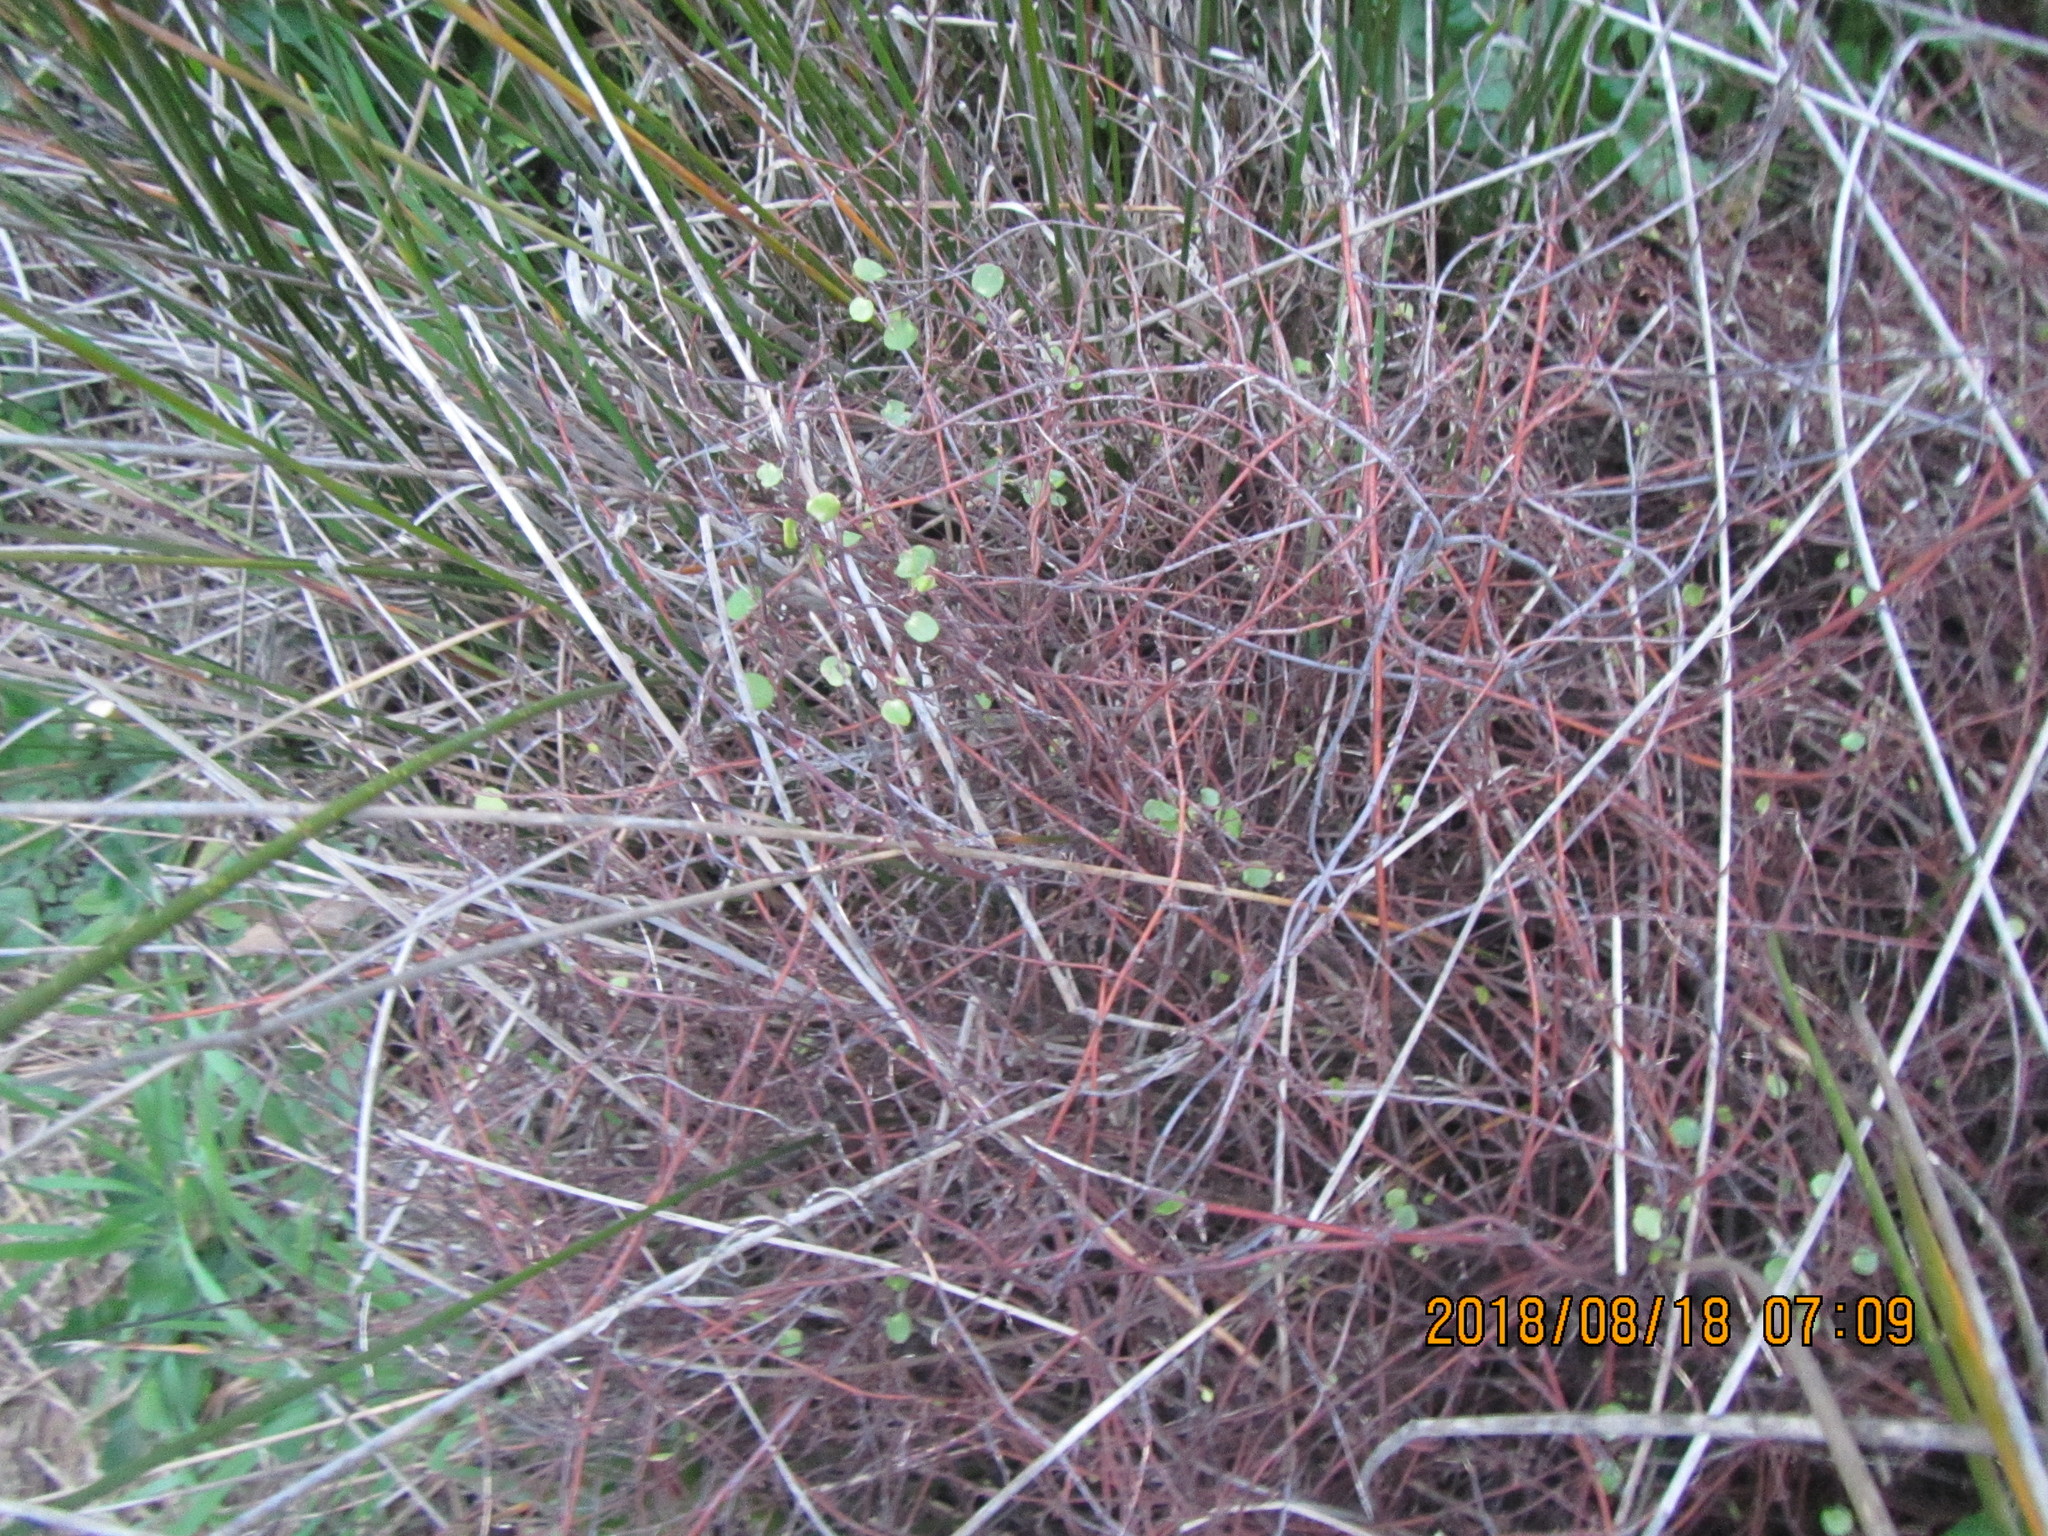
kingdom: Plantae
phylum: Tracheophyta
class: Magnoliopsida
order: Caryophyllales
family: Polygonaceae
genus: Muehlenbeckia
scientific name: Muehlenbeckia complexa
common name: Wireplant
